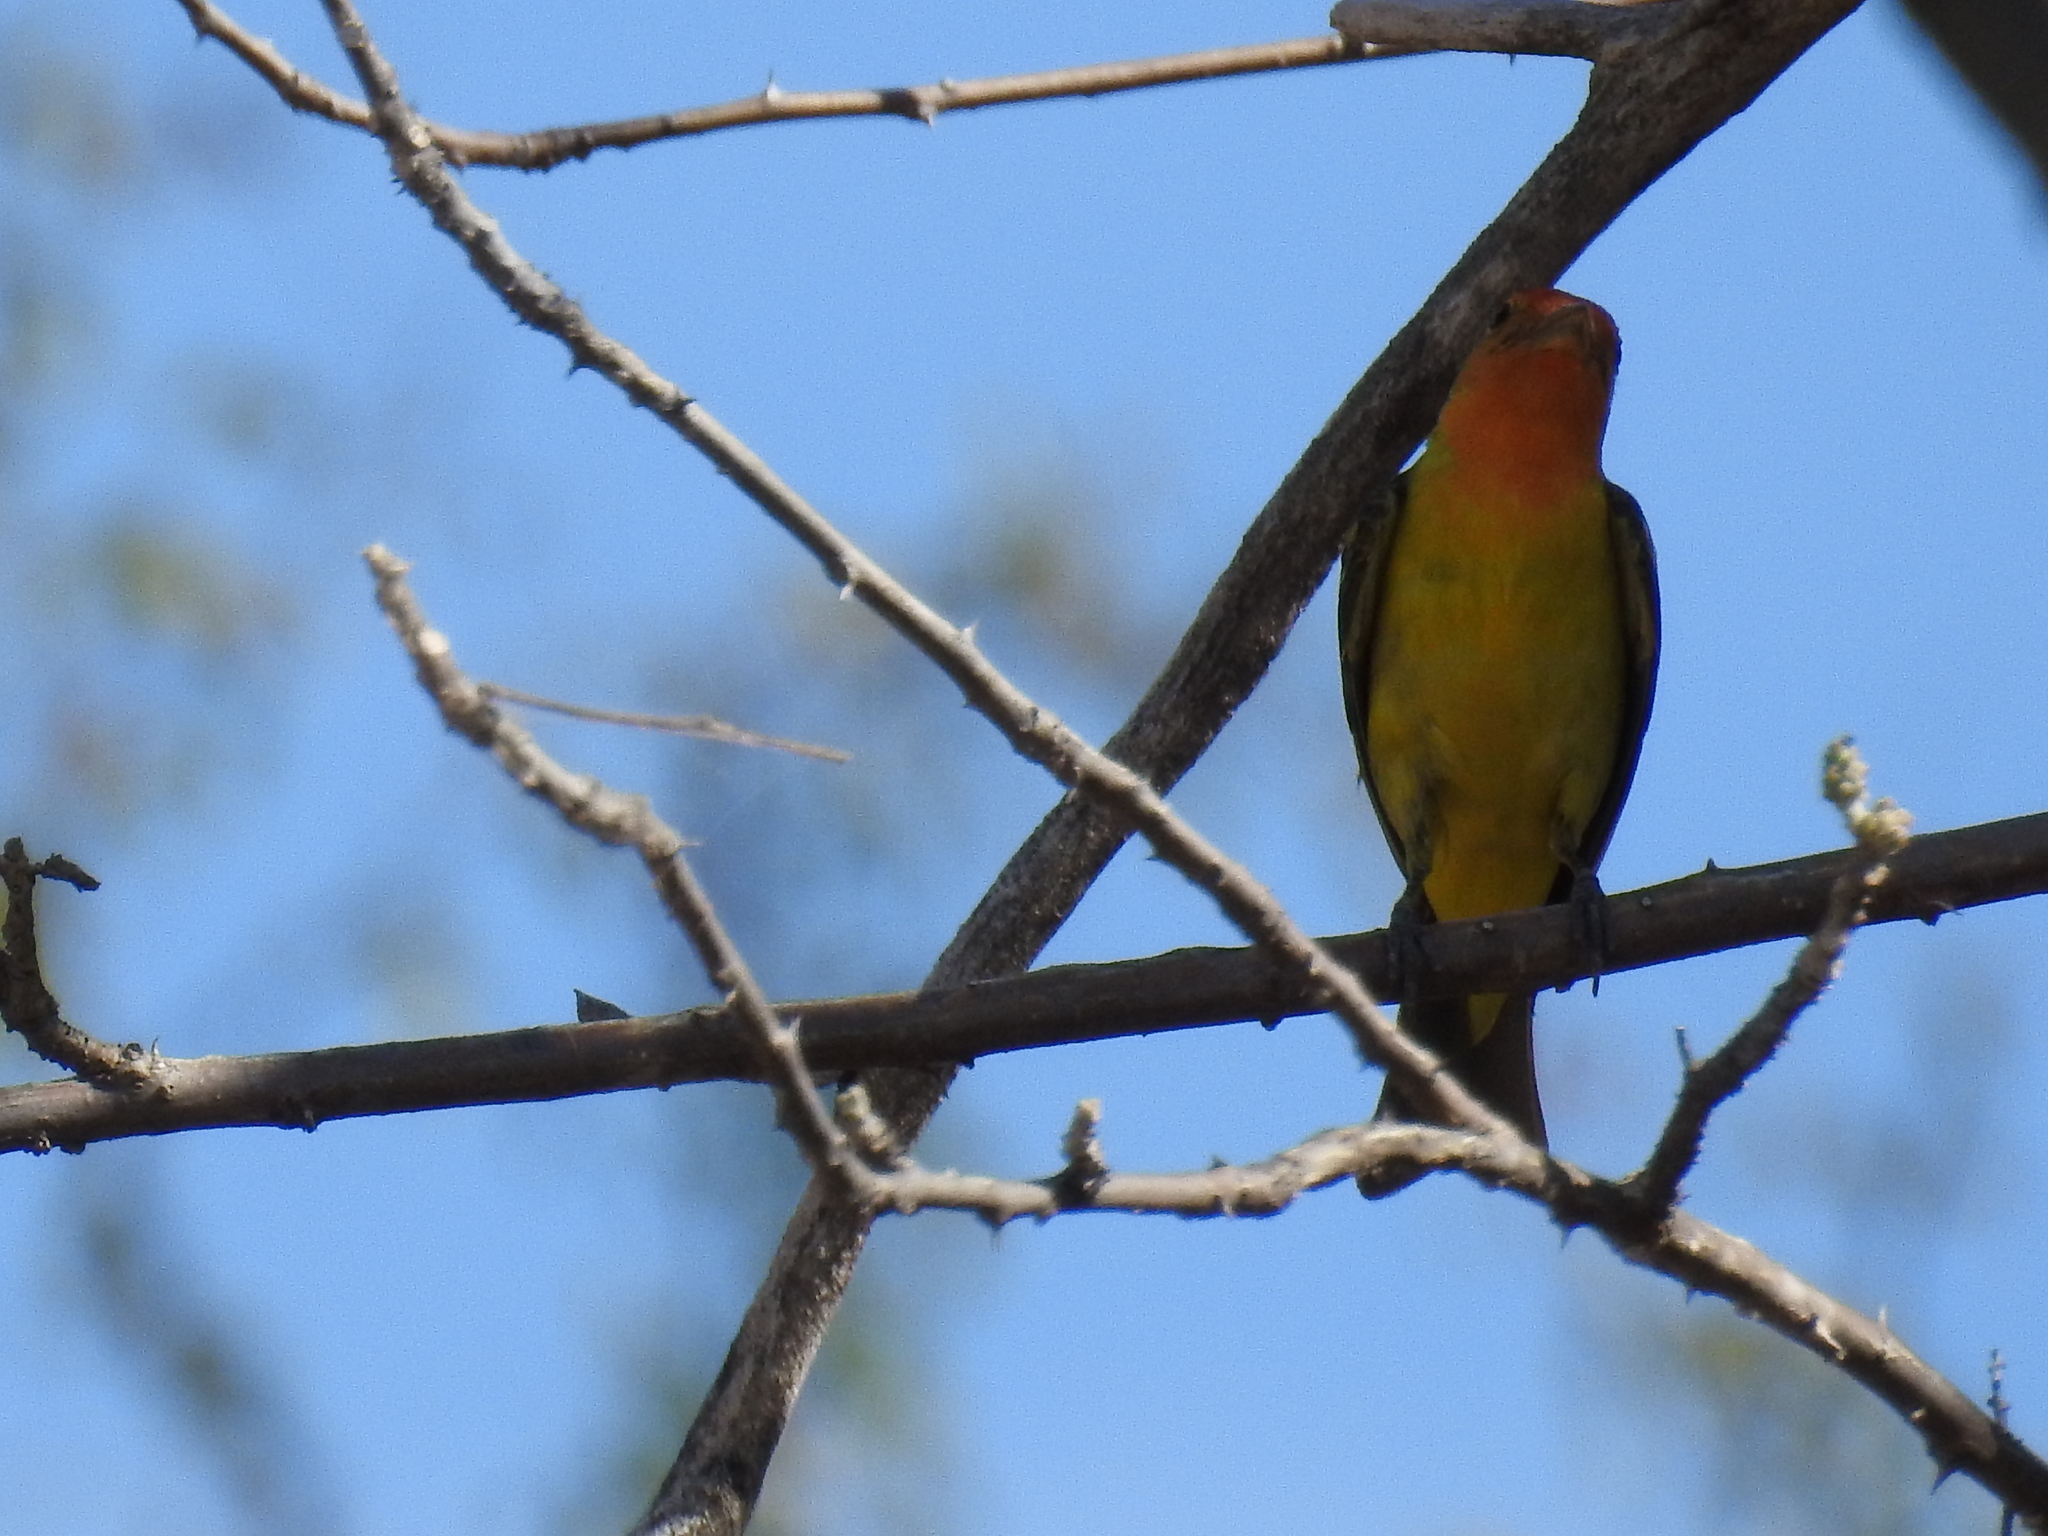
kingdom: Animalia
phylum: Chordata
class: Aves
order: Passeriformes
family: Cardinalidae
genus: Piranga
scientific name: Piranga ludoviciana
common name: Western tanager
